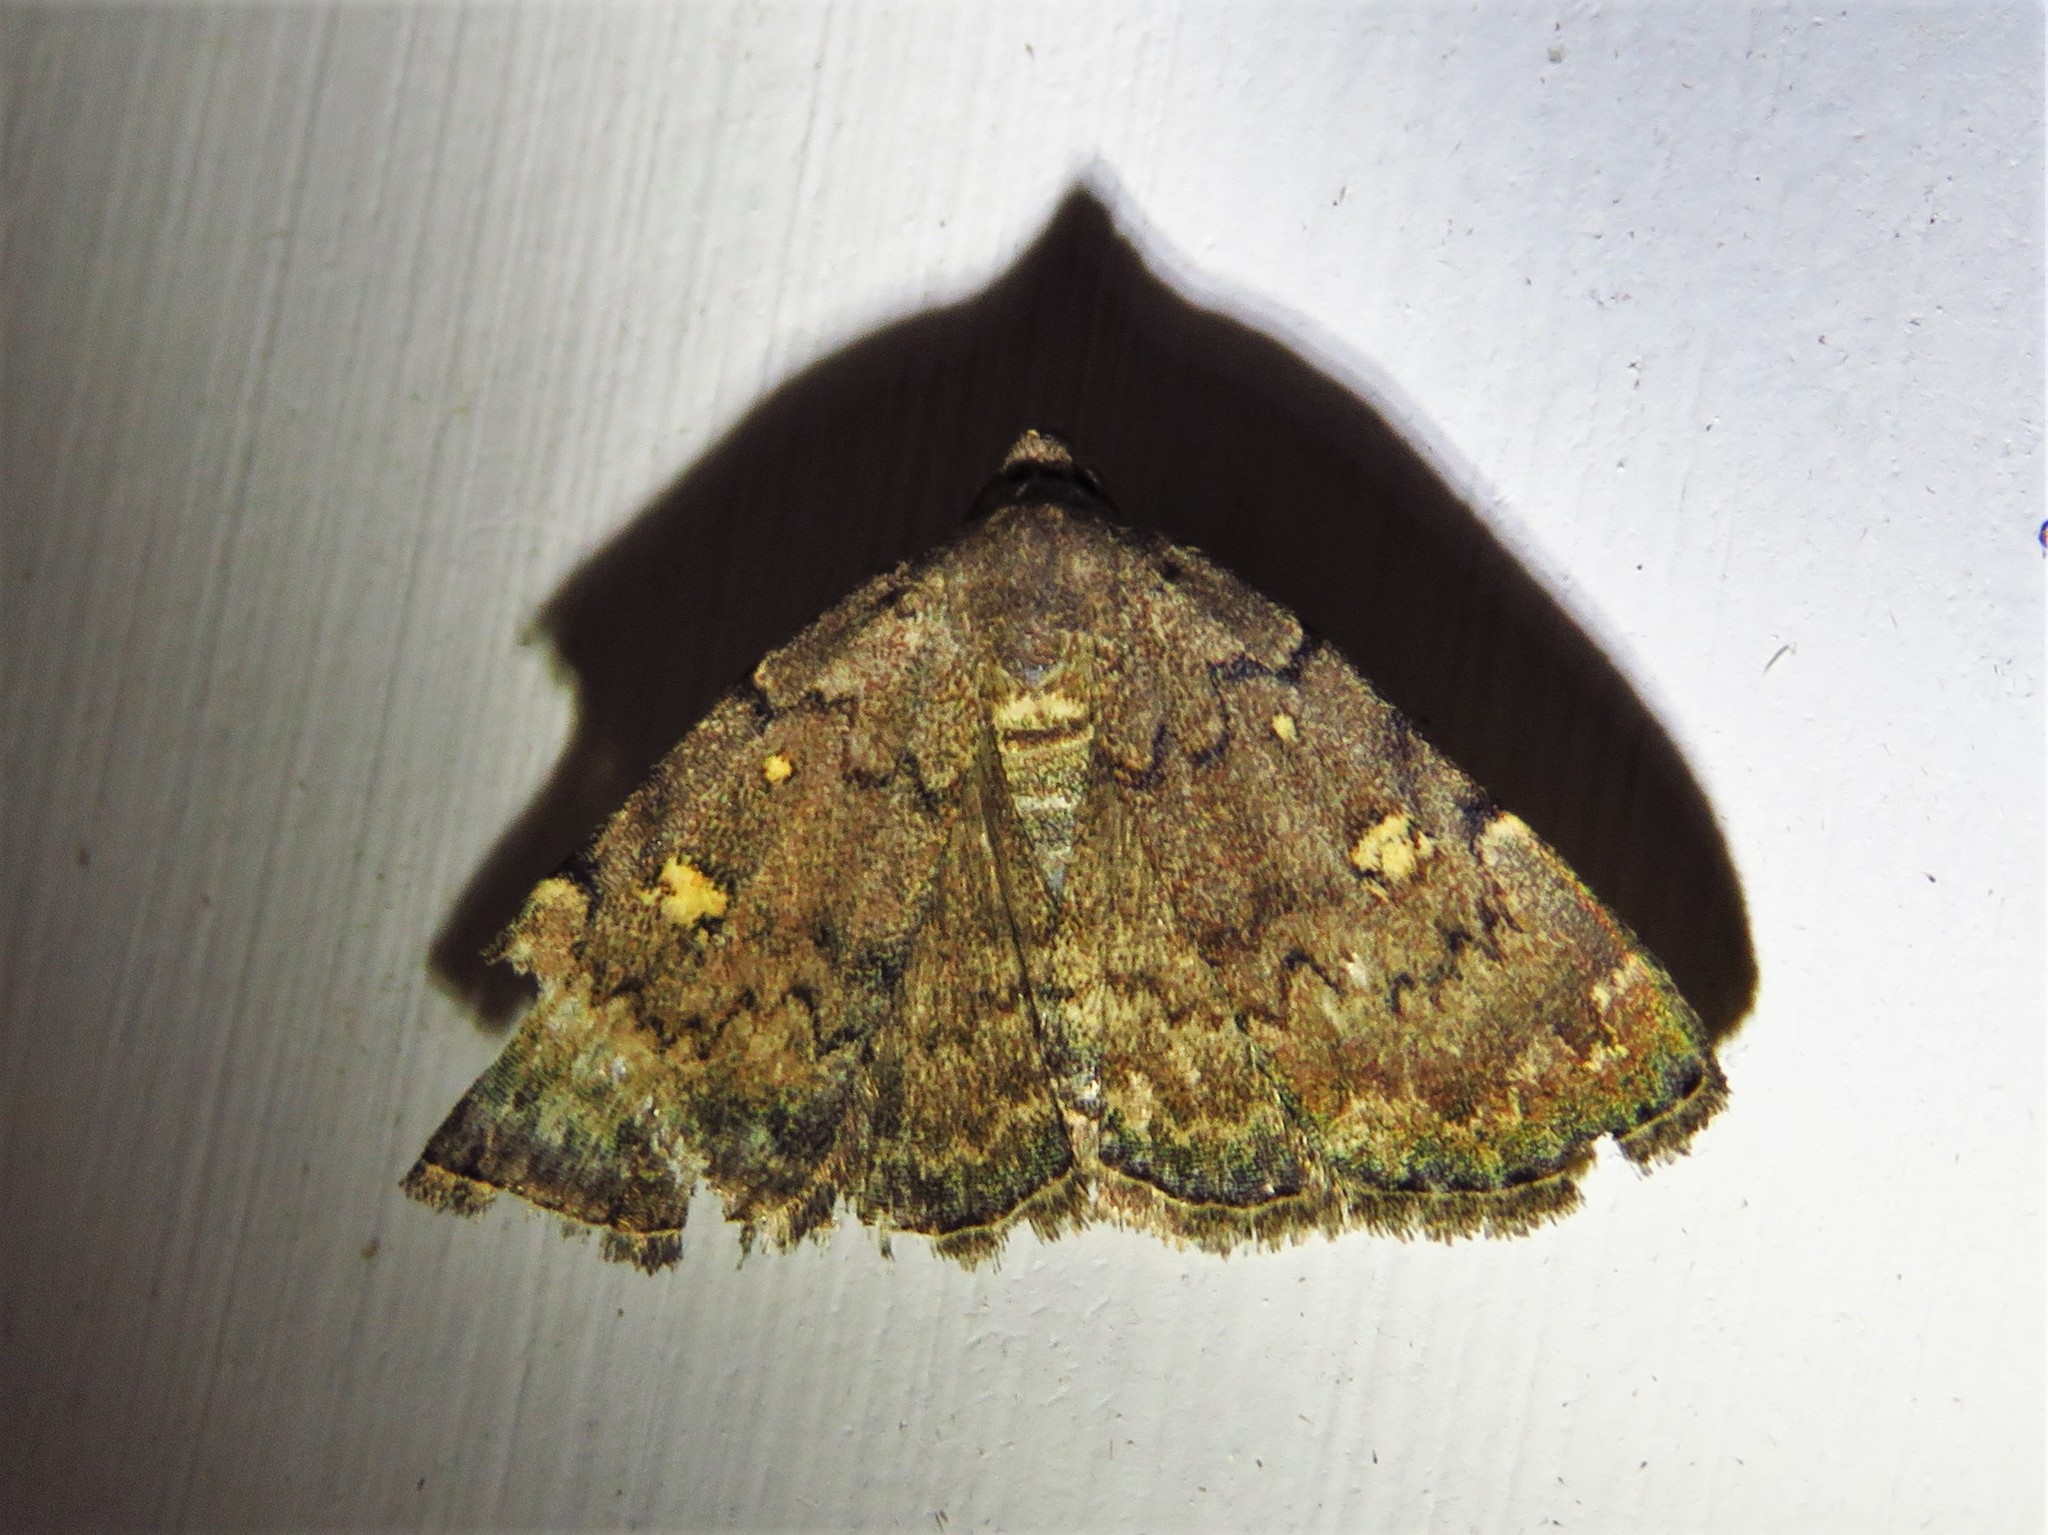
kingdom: Animalia
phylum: Arthropoda
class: Insecta
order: Lepidoptera
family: Erebidae
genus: Idia
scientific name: Idia aemula
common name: Common idia moth
